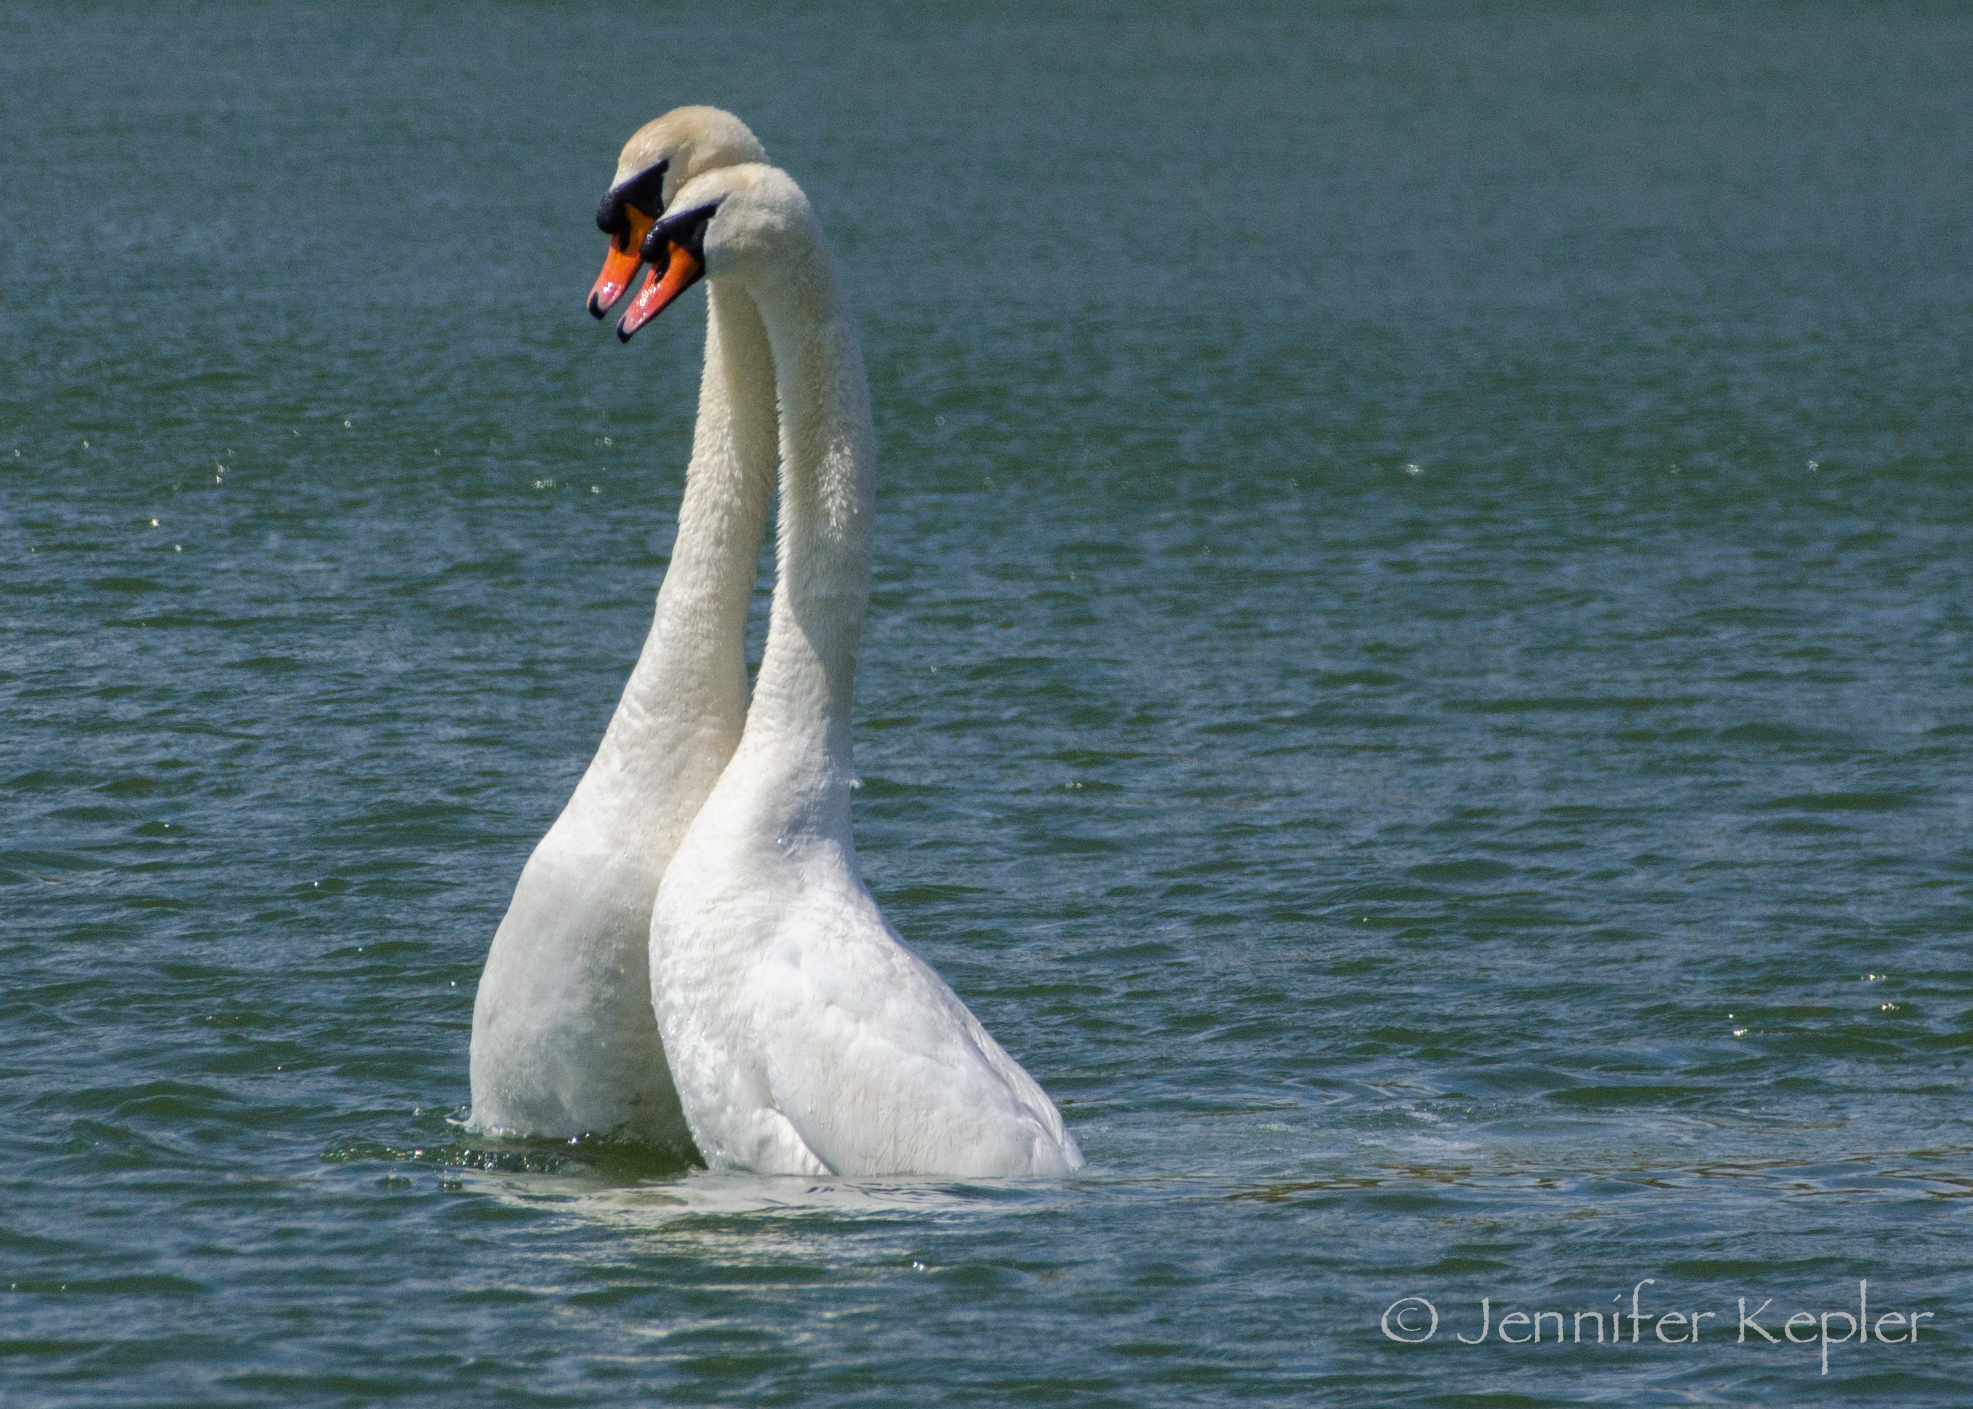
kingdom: Animalia
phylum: Chordata
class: Aves
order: Anseriformes
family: Anatidae
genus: Cygnus
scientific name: Cygnus olor
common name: Mute swan
